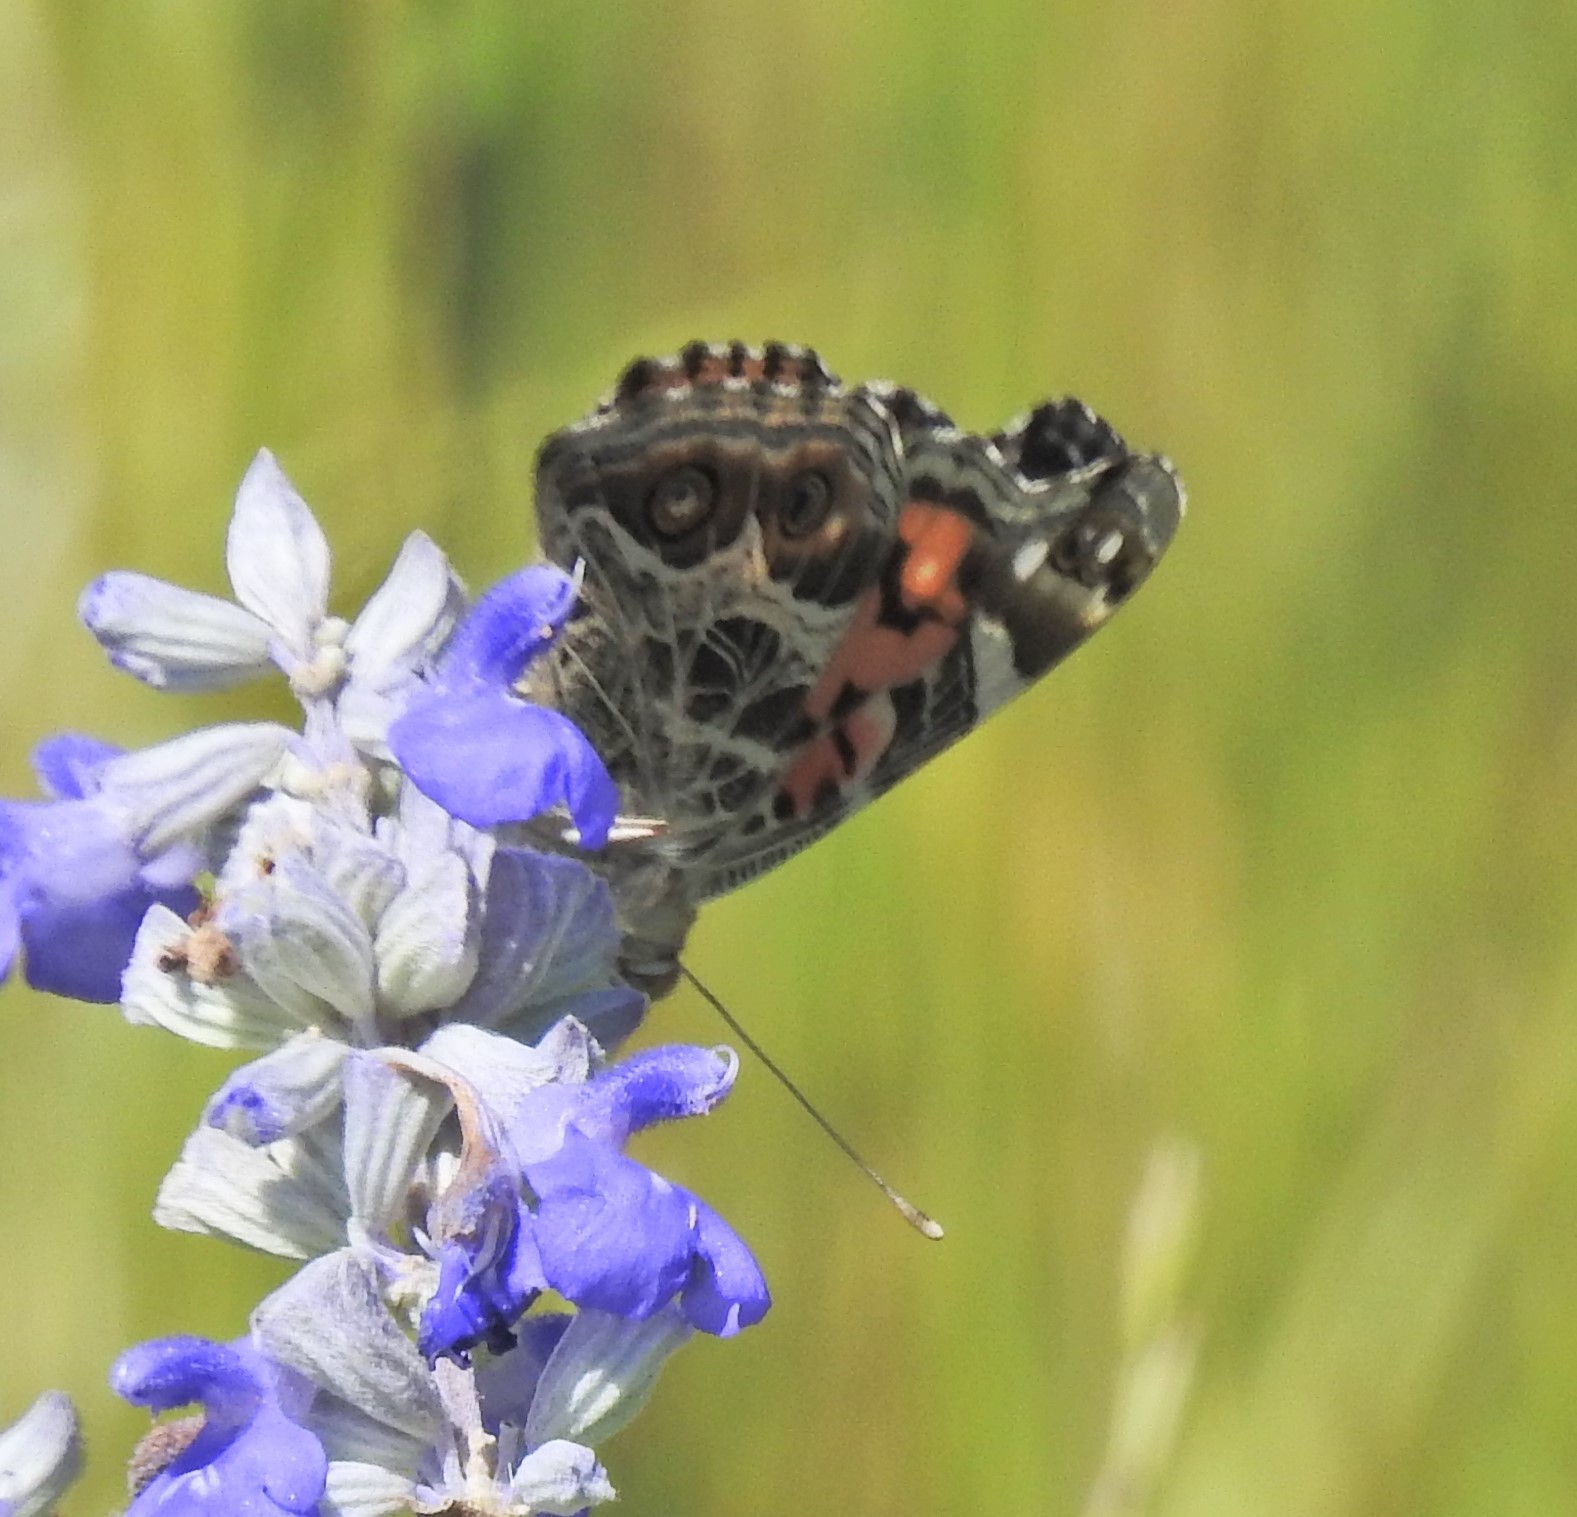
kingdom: Animalia
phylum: Arthropoda
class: Insecta
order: Lepidoptera
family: Nymphalidae
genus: Vanessa
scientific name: Vanessa virginiensis
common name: American lady
